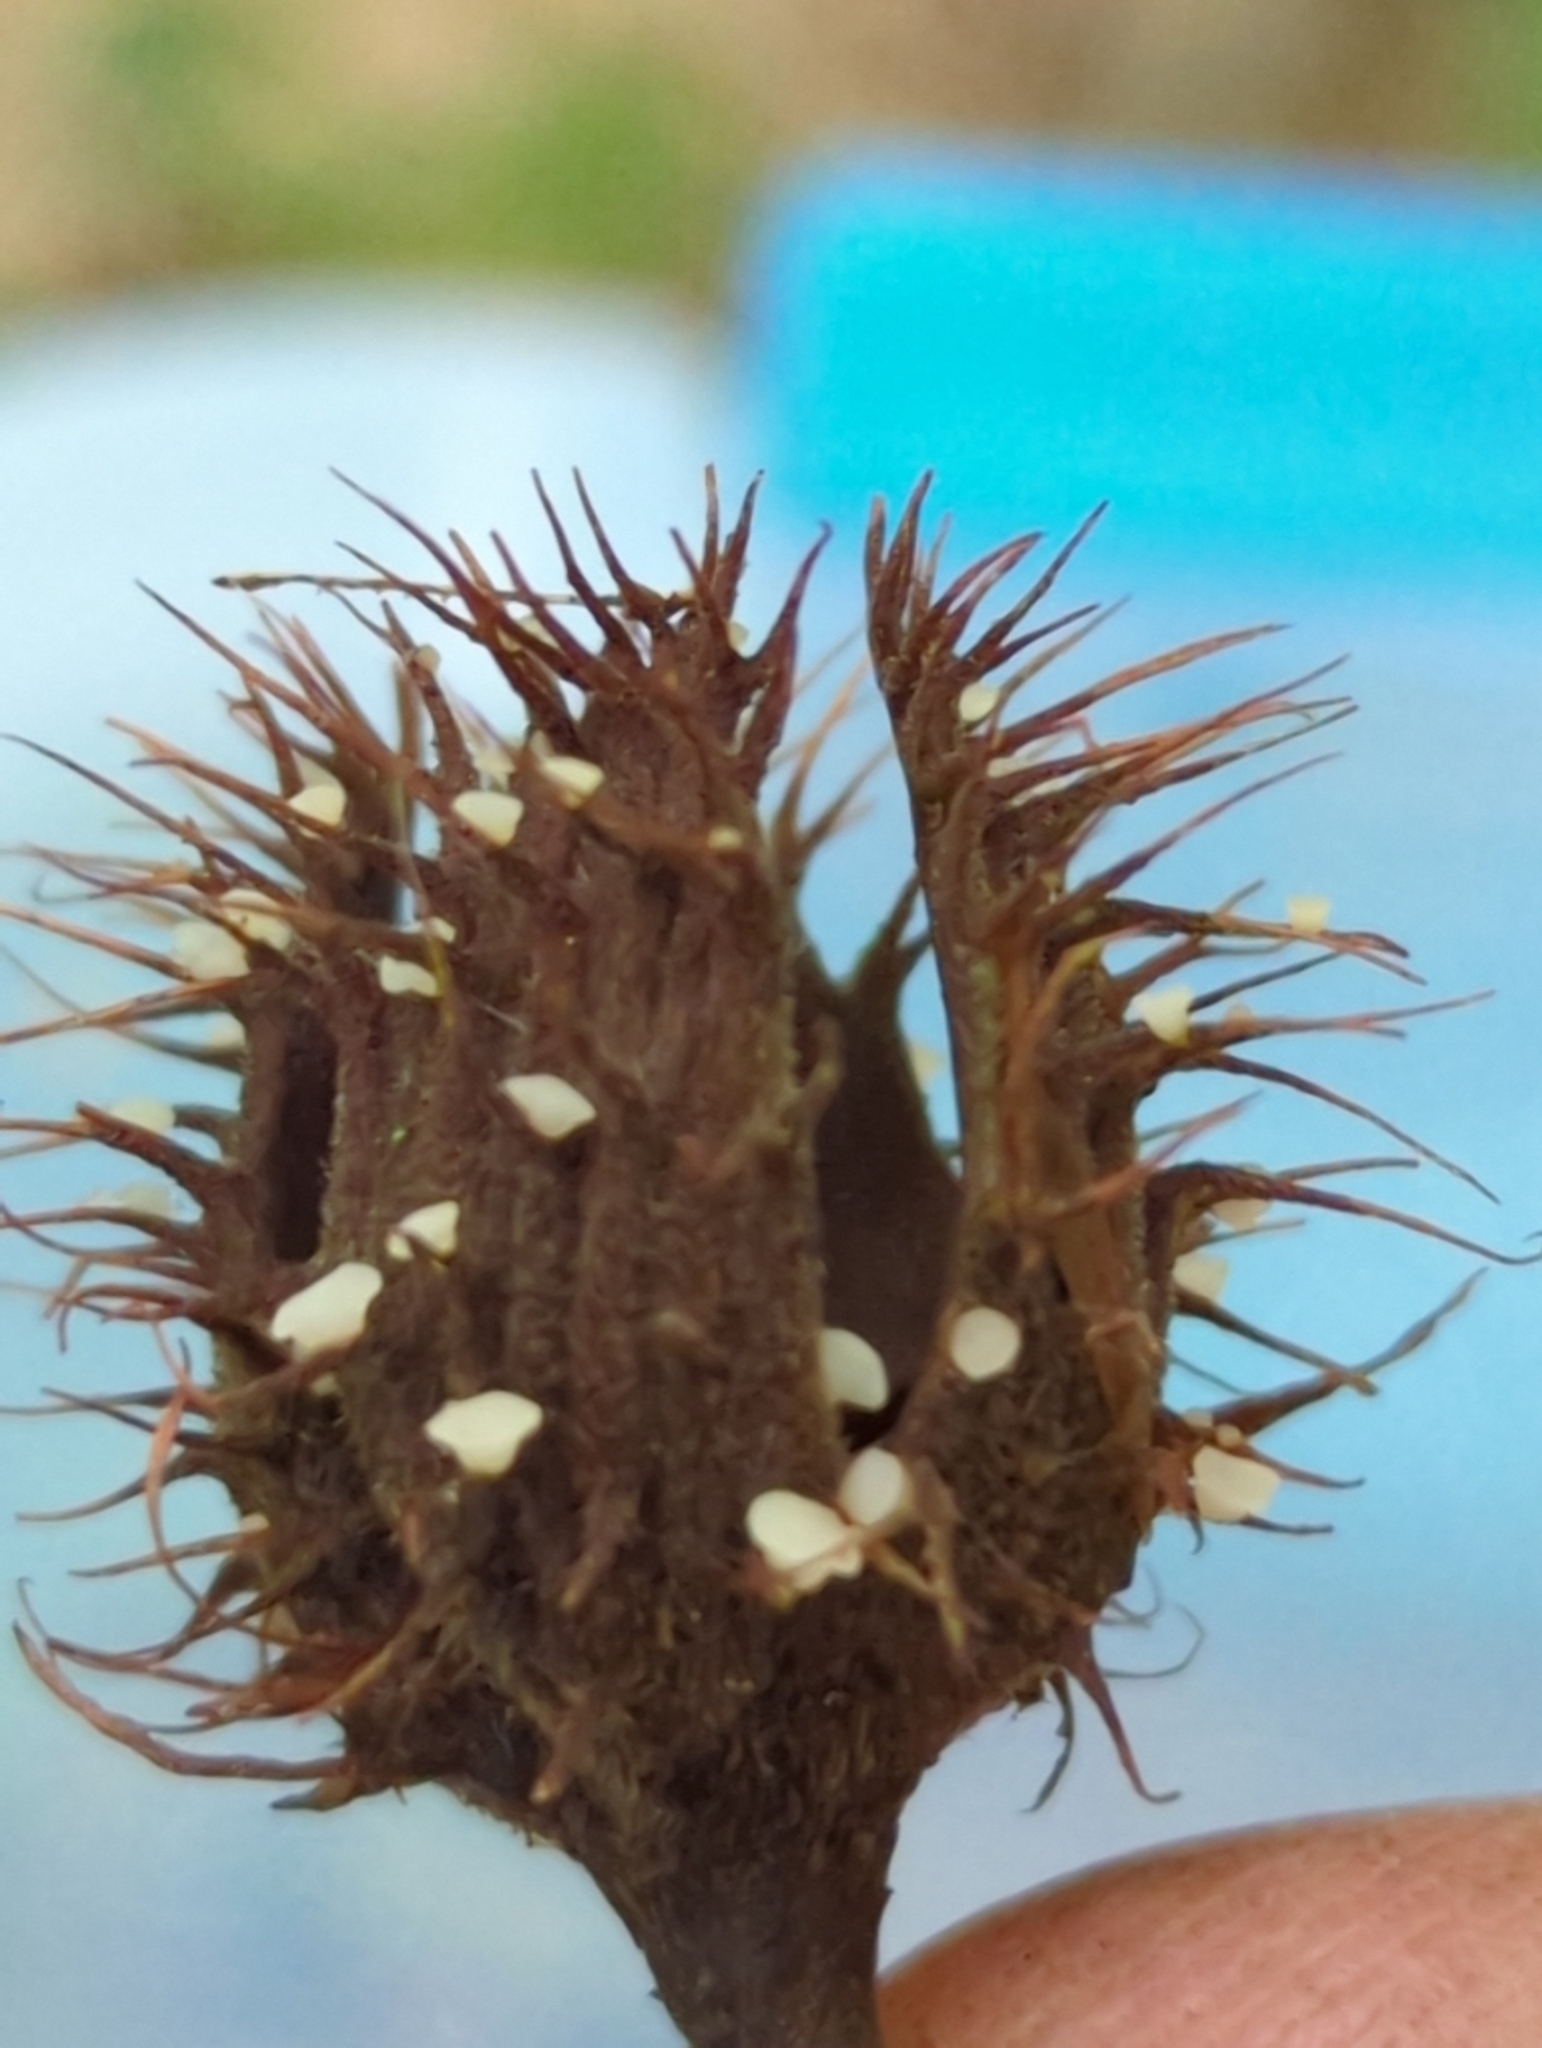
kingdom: Fungi
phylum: Ascomycota
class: Leotiomycetes
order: Helotiales
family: Helotiaceae
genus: Hymenoscyphus
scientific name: Hymenoscyphus fructigenus
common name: Nut disco
